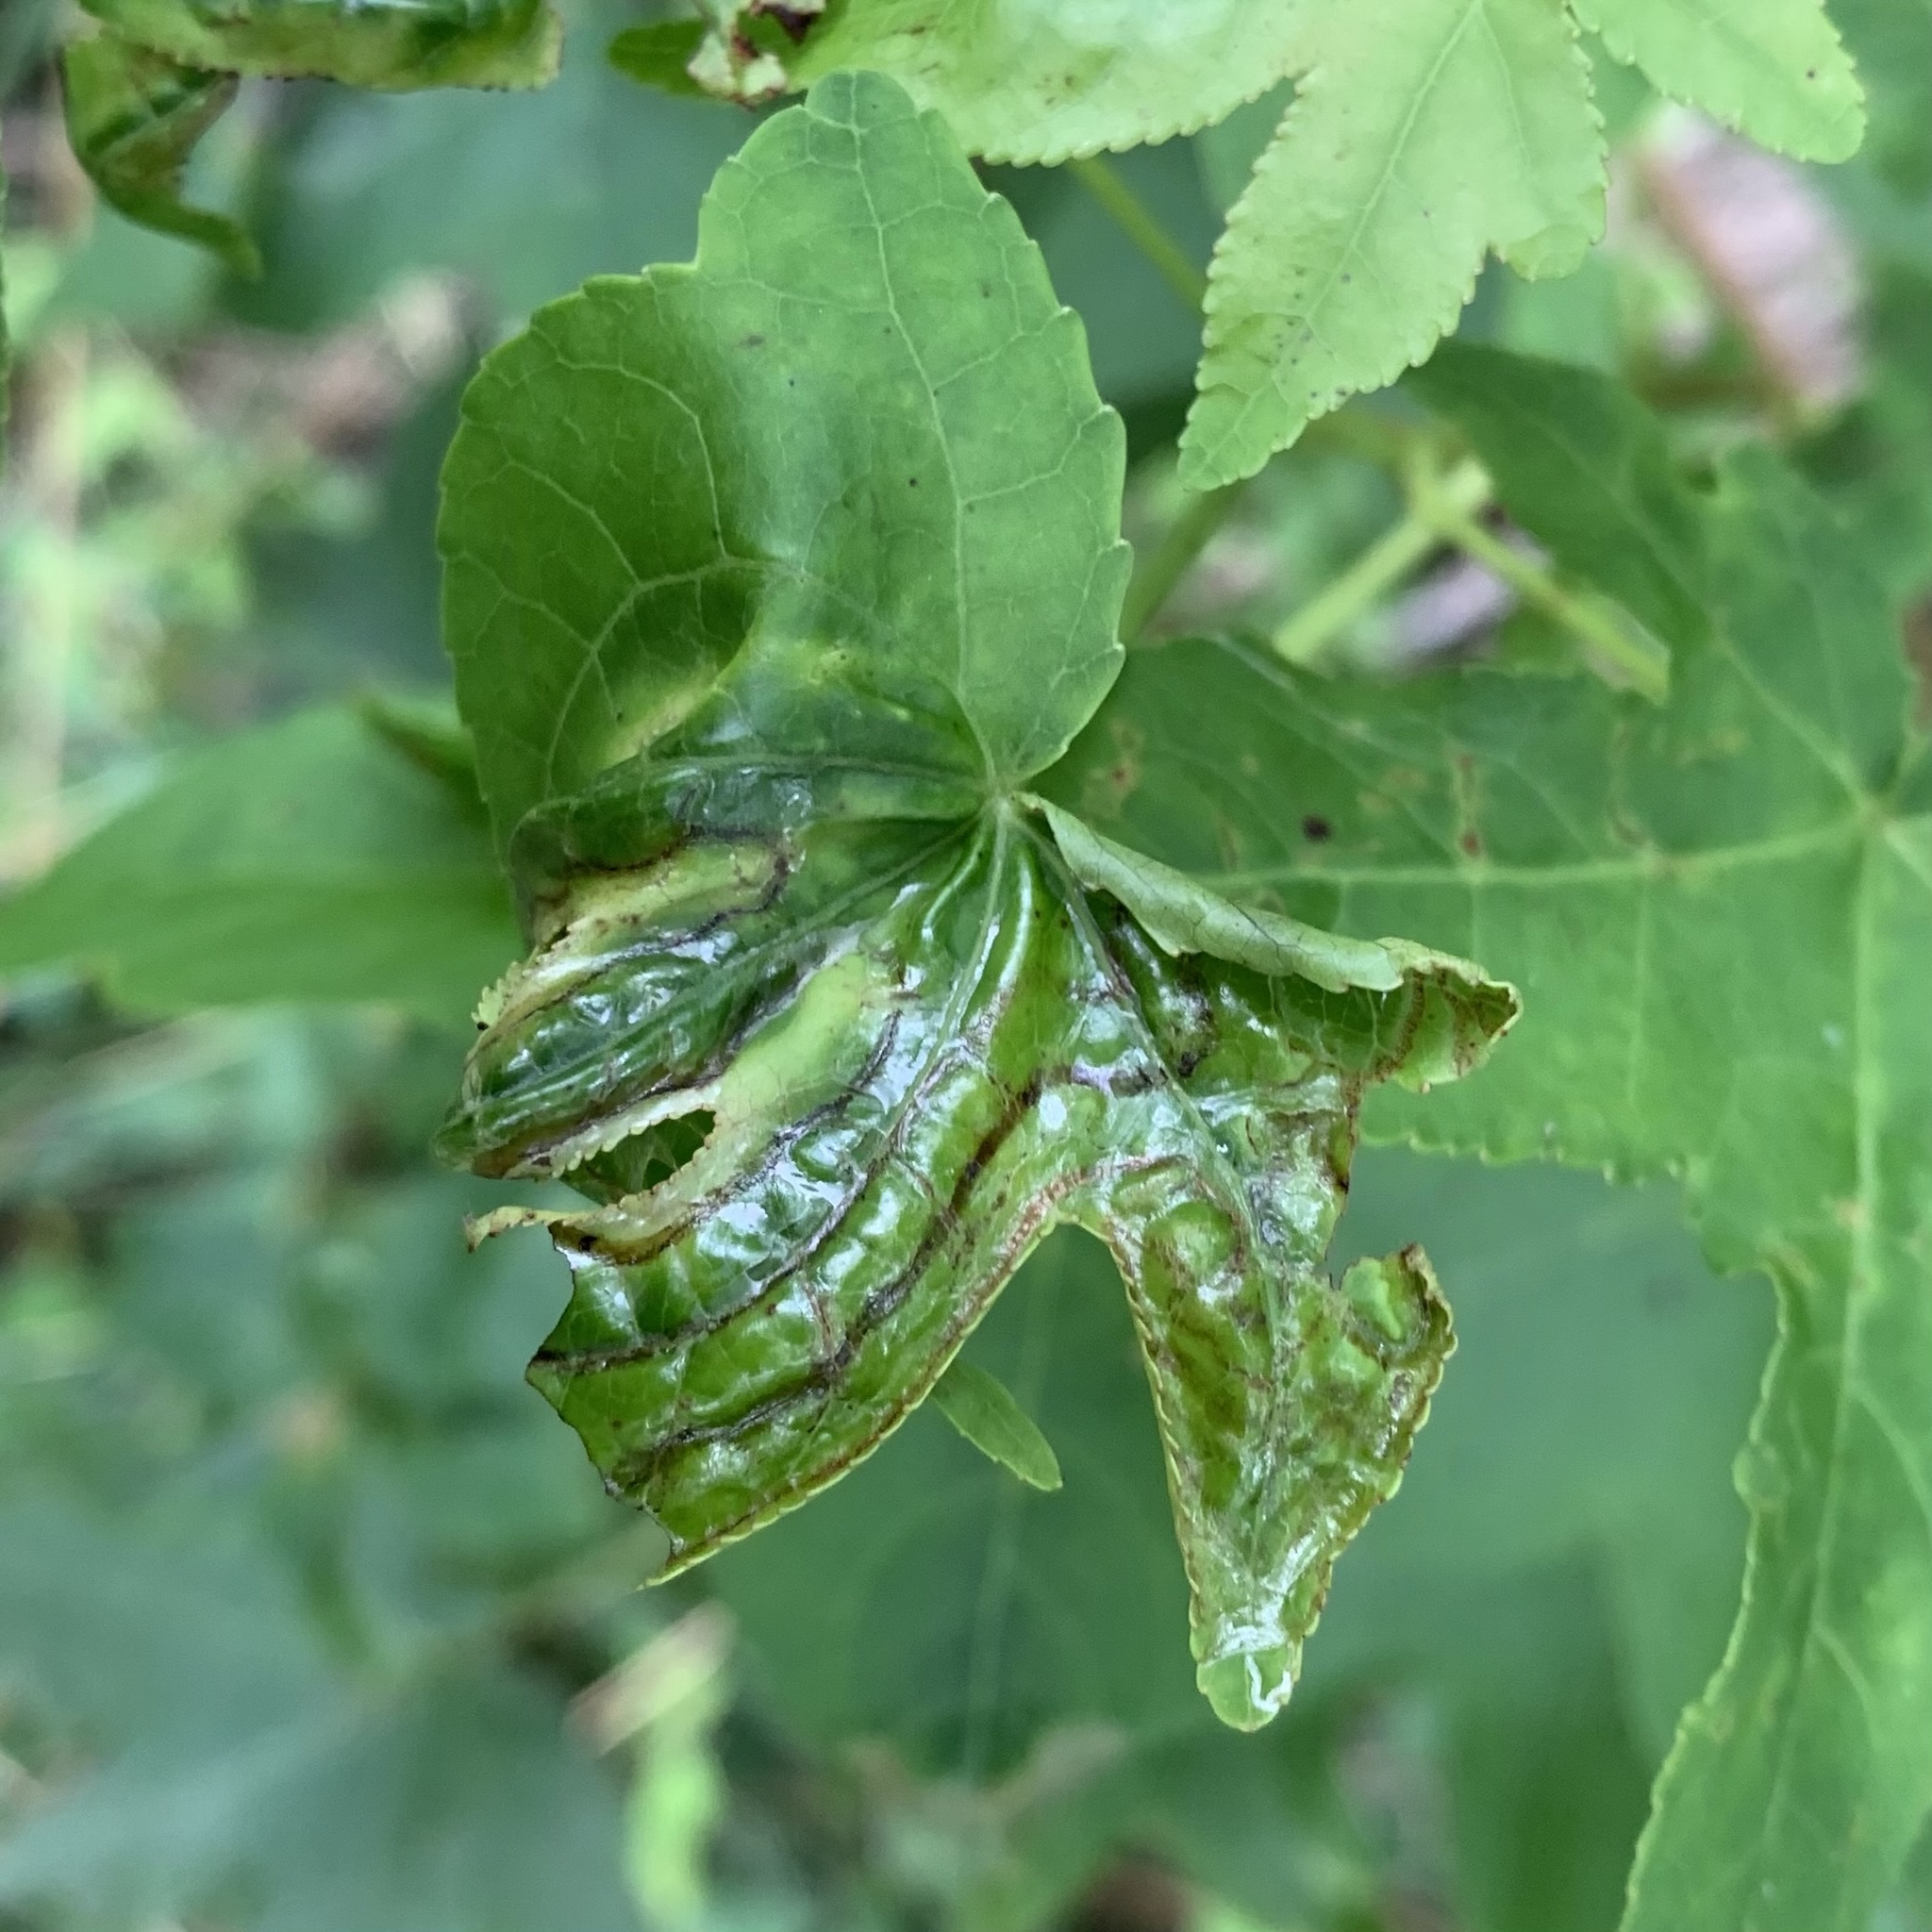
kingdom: Animalia
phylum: Arthropoda
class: Insecta
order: Lepidoptera
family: Gracillariidae
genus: Phyllocnistis
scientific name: Phyllocnistis liquidambarisella
